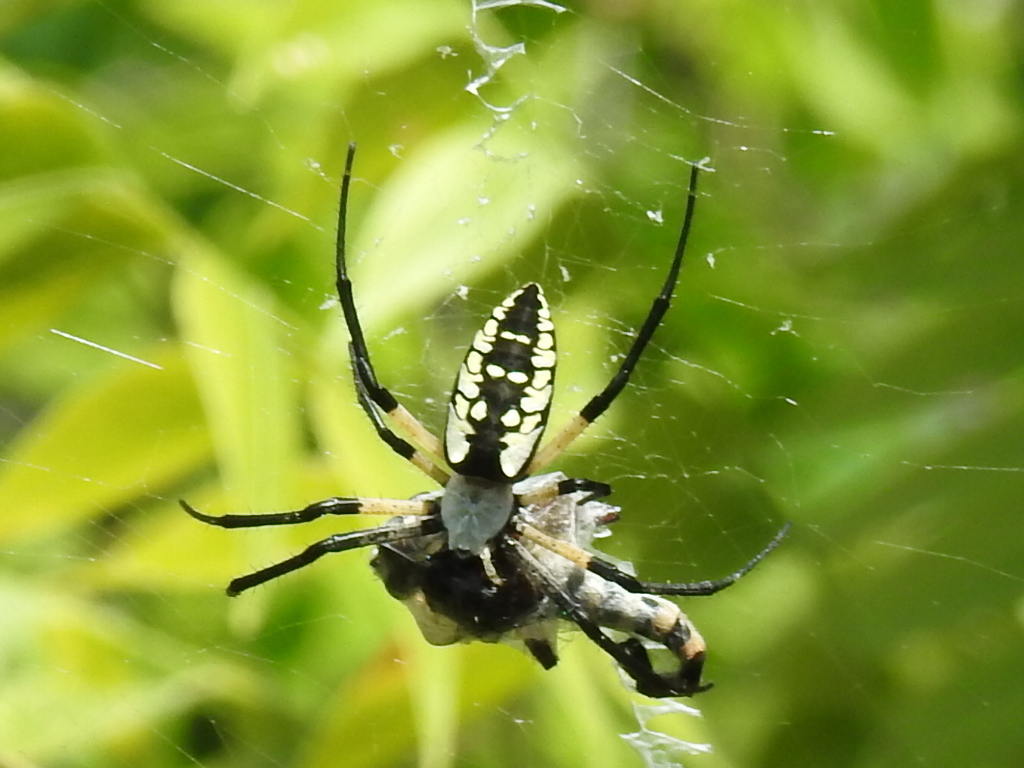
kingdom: Animalia
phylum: Arthropoda
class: Arachnida
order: Araneae
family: Araneidae
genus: Argiope
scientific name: Argiope aurantia
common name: Orb weavers
